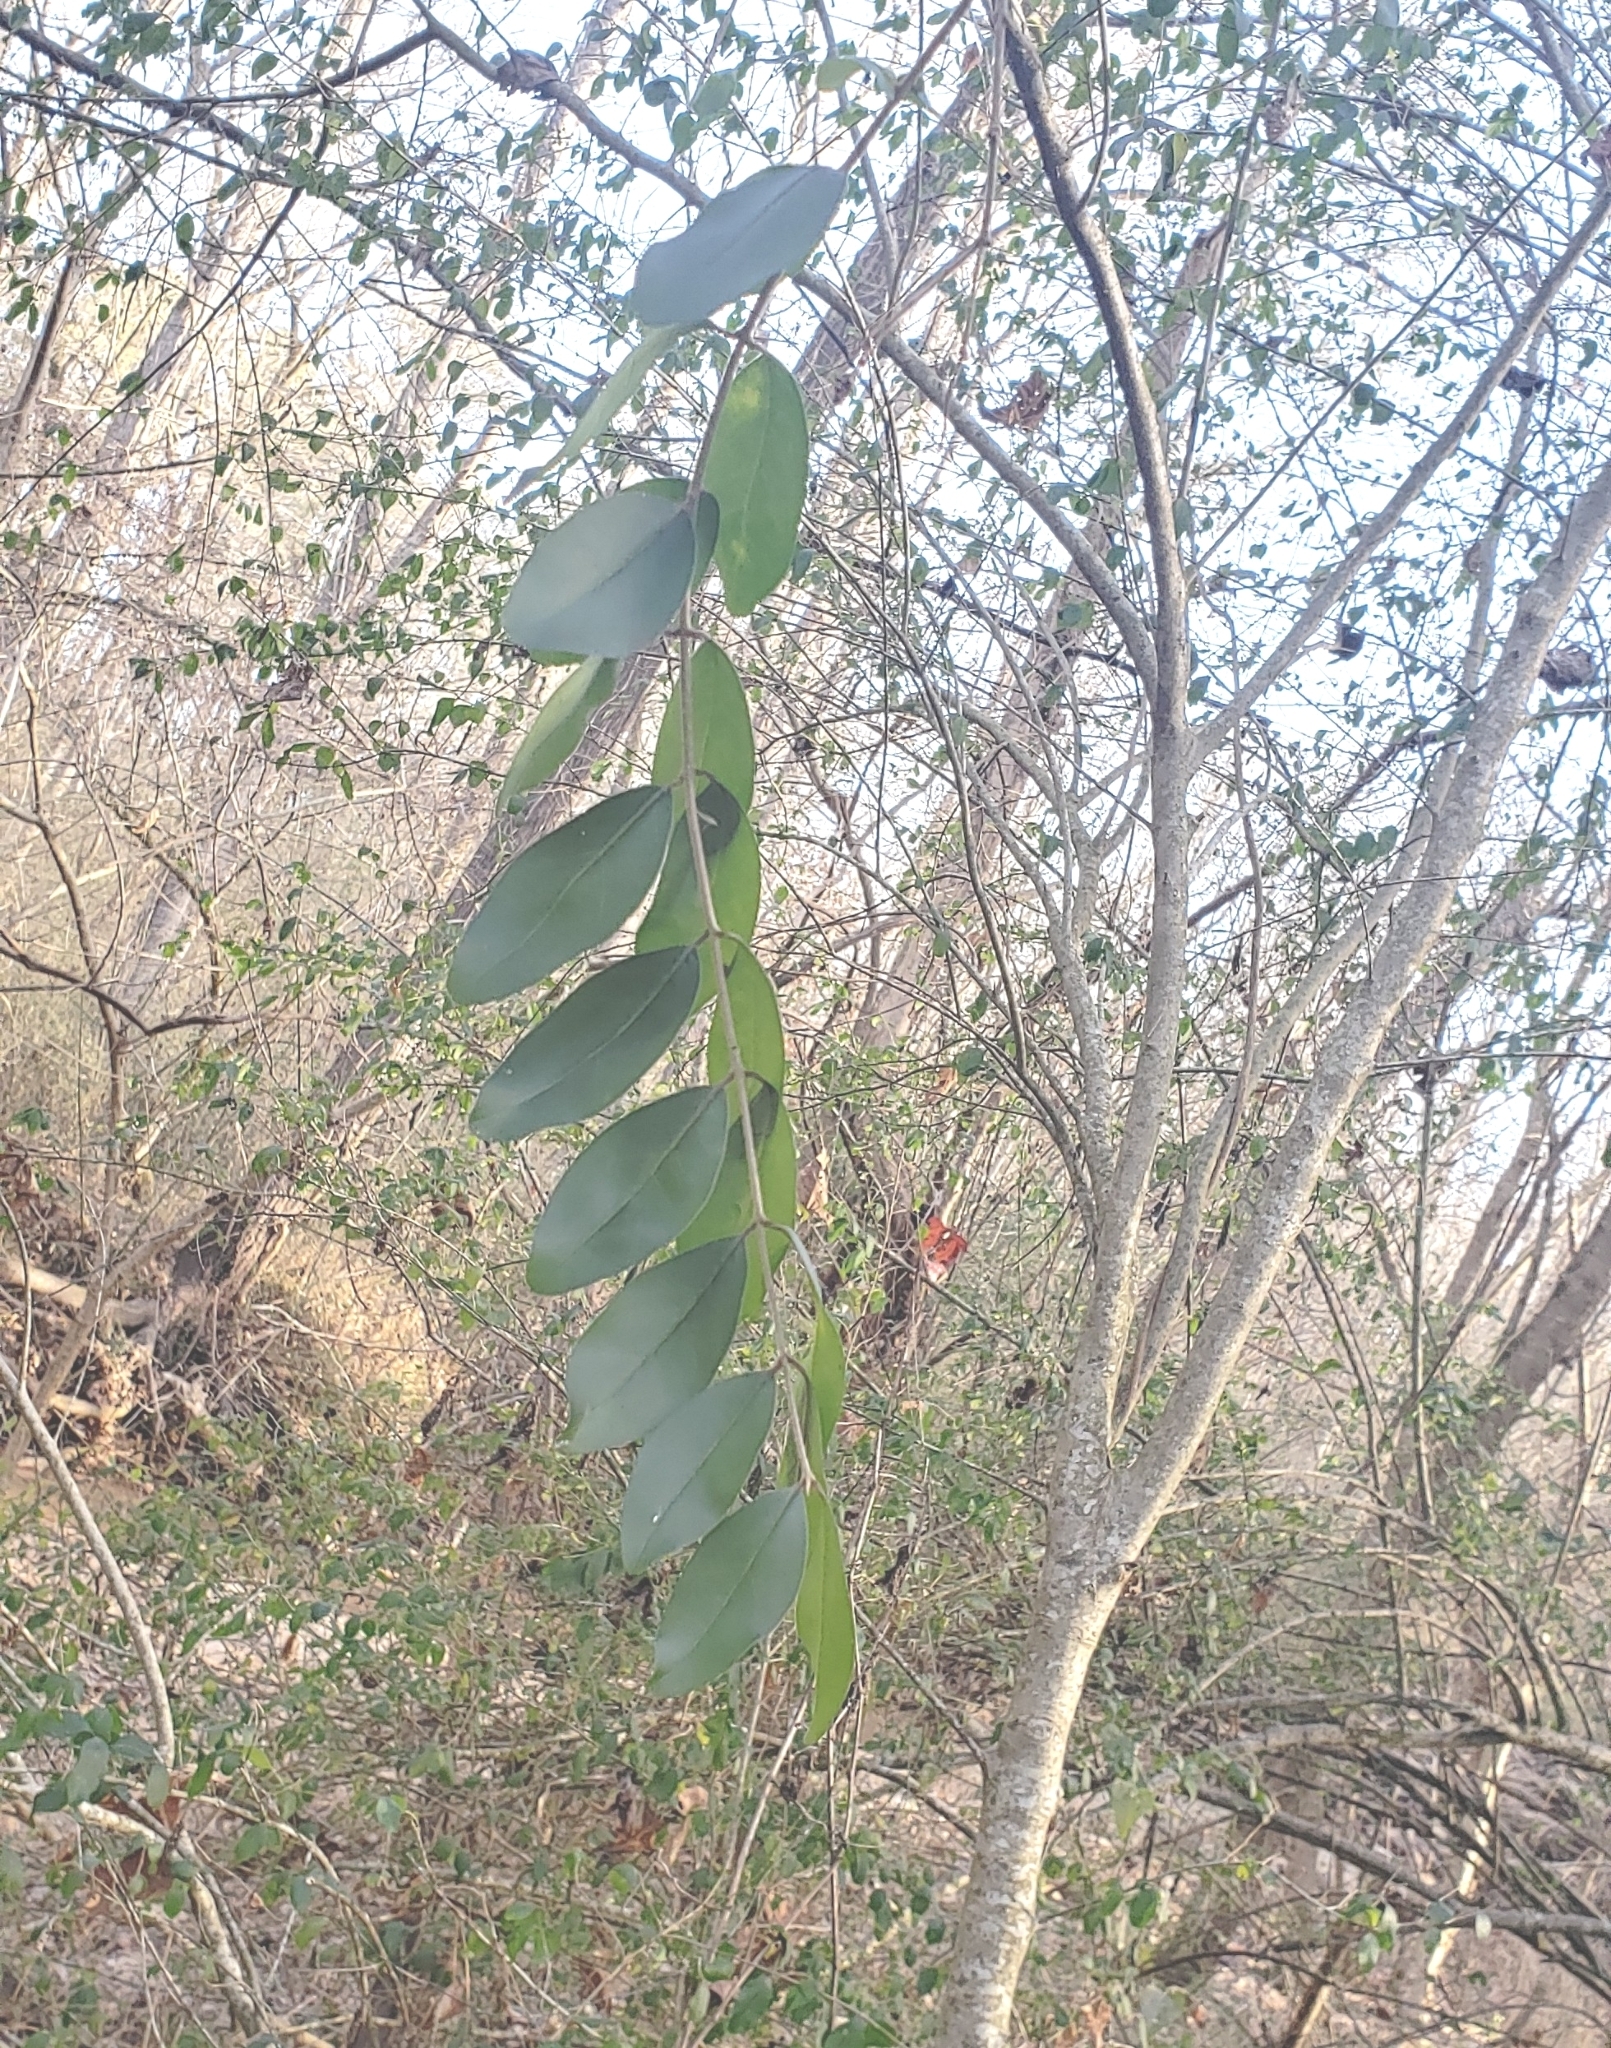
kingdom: Plantae
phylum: Tracheophyta
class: Magnoliopsida
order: Lamiales
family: Oleaceae
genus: Ligustrum
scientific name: Ligustrum sinense
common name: Chinese privet
